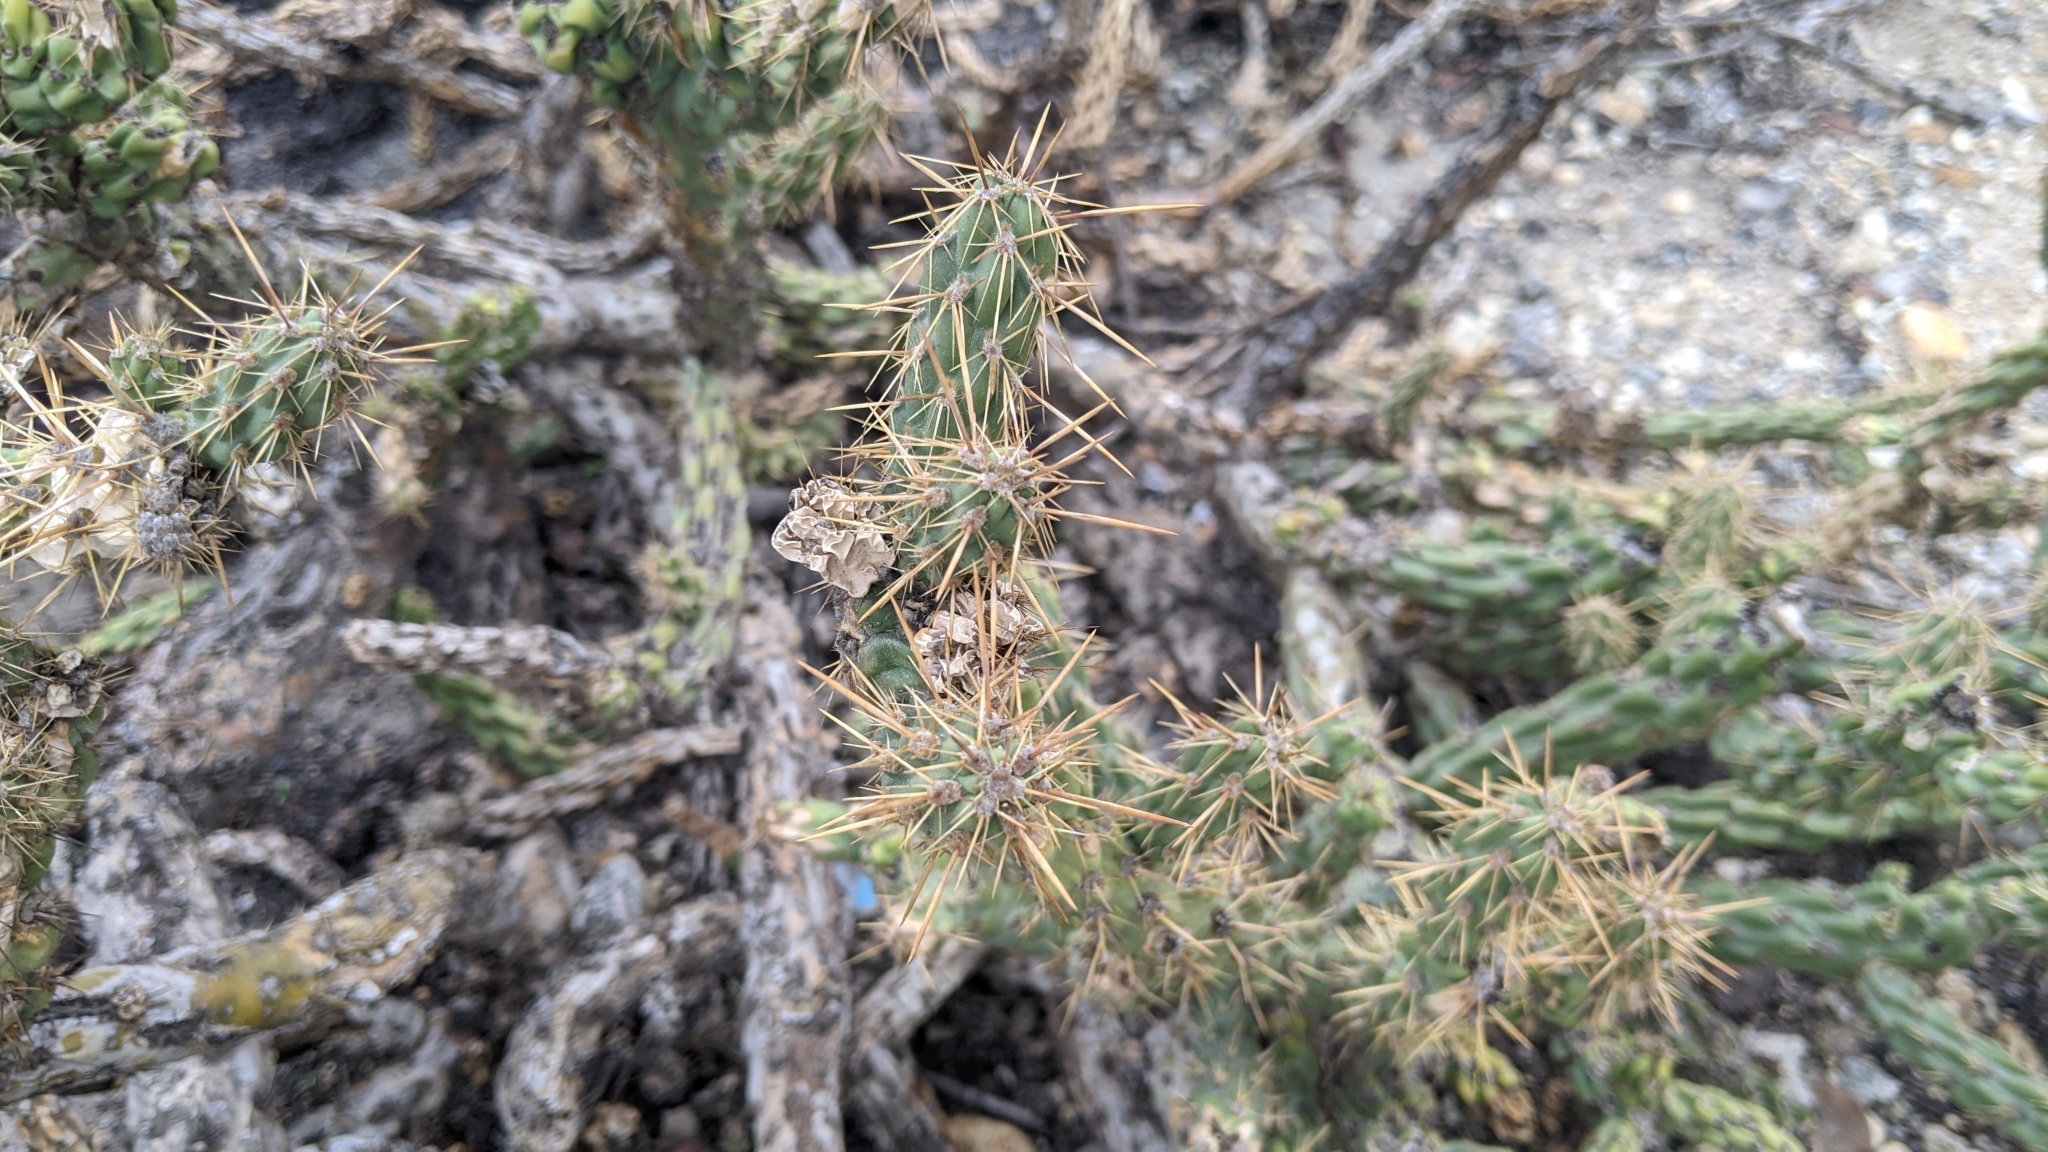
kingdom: Plantae
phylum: Tracheophyta
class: Magnoliopsida
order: Caryophyllales
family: Cactaceae
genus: Cylindropuntia
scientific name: Cylindropuntia bernardina
